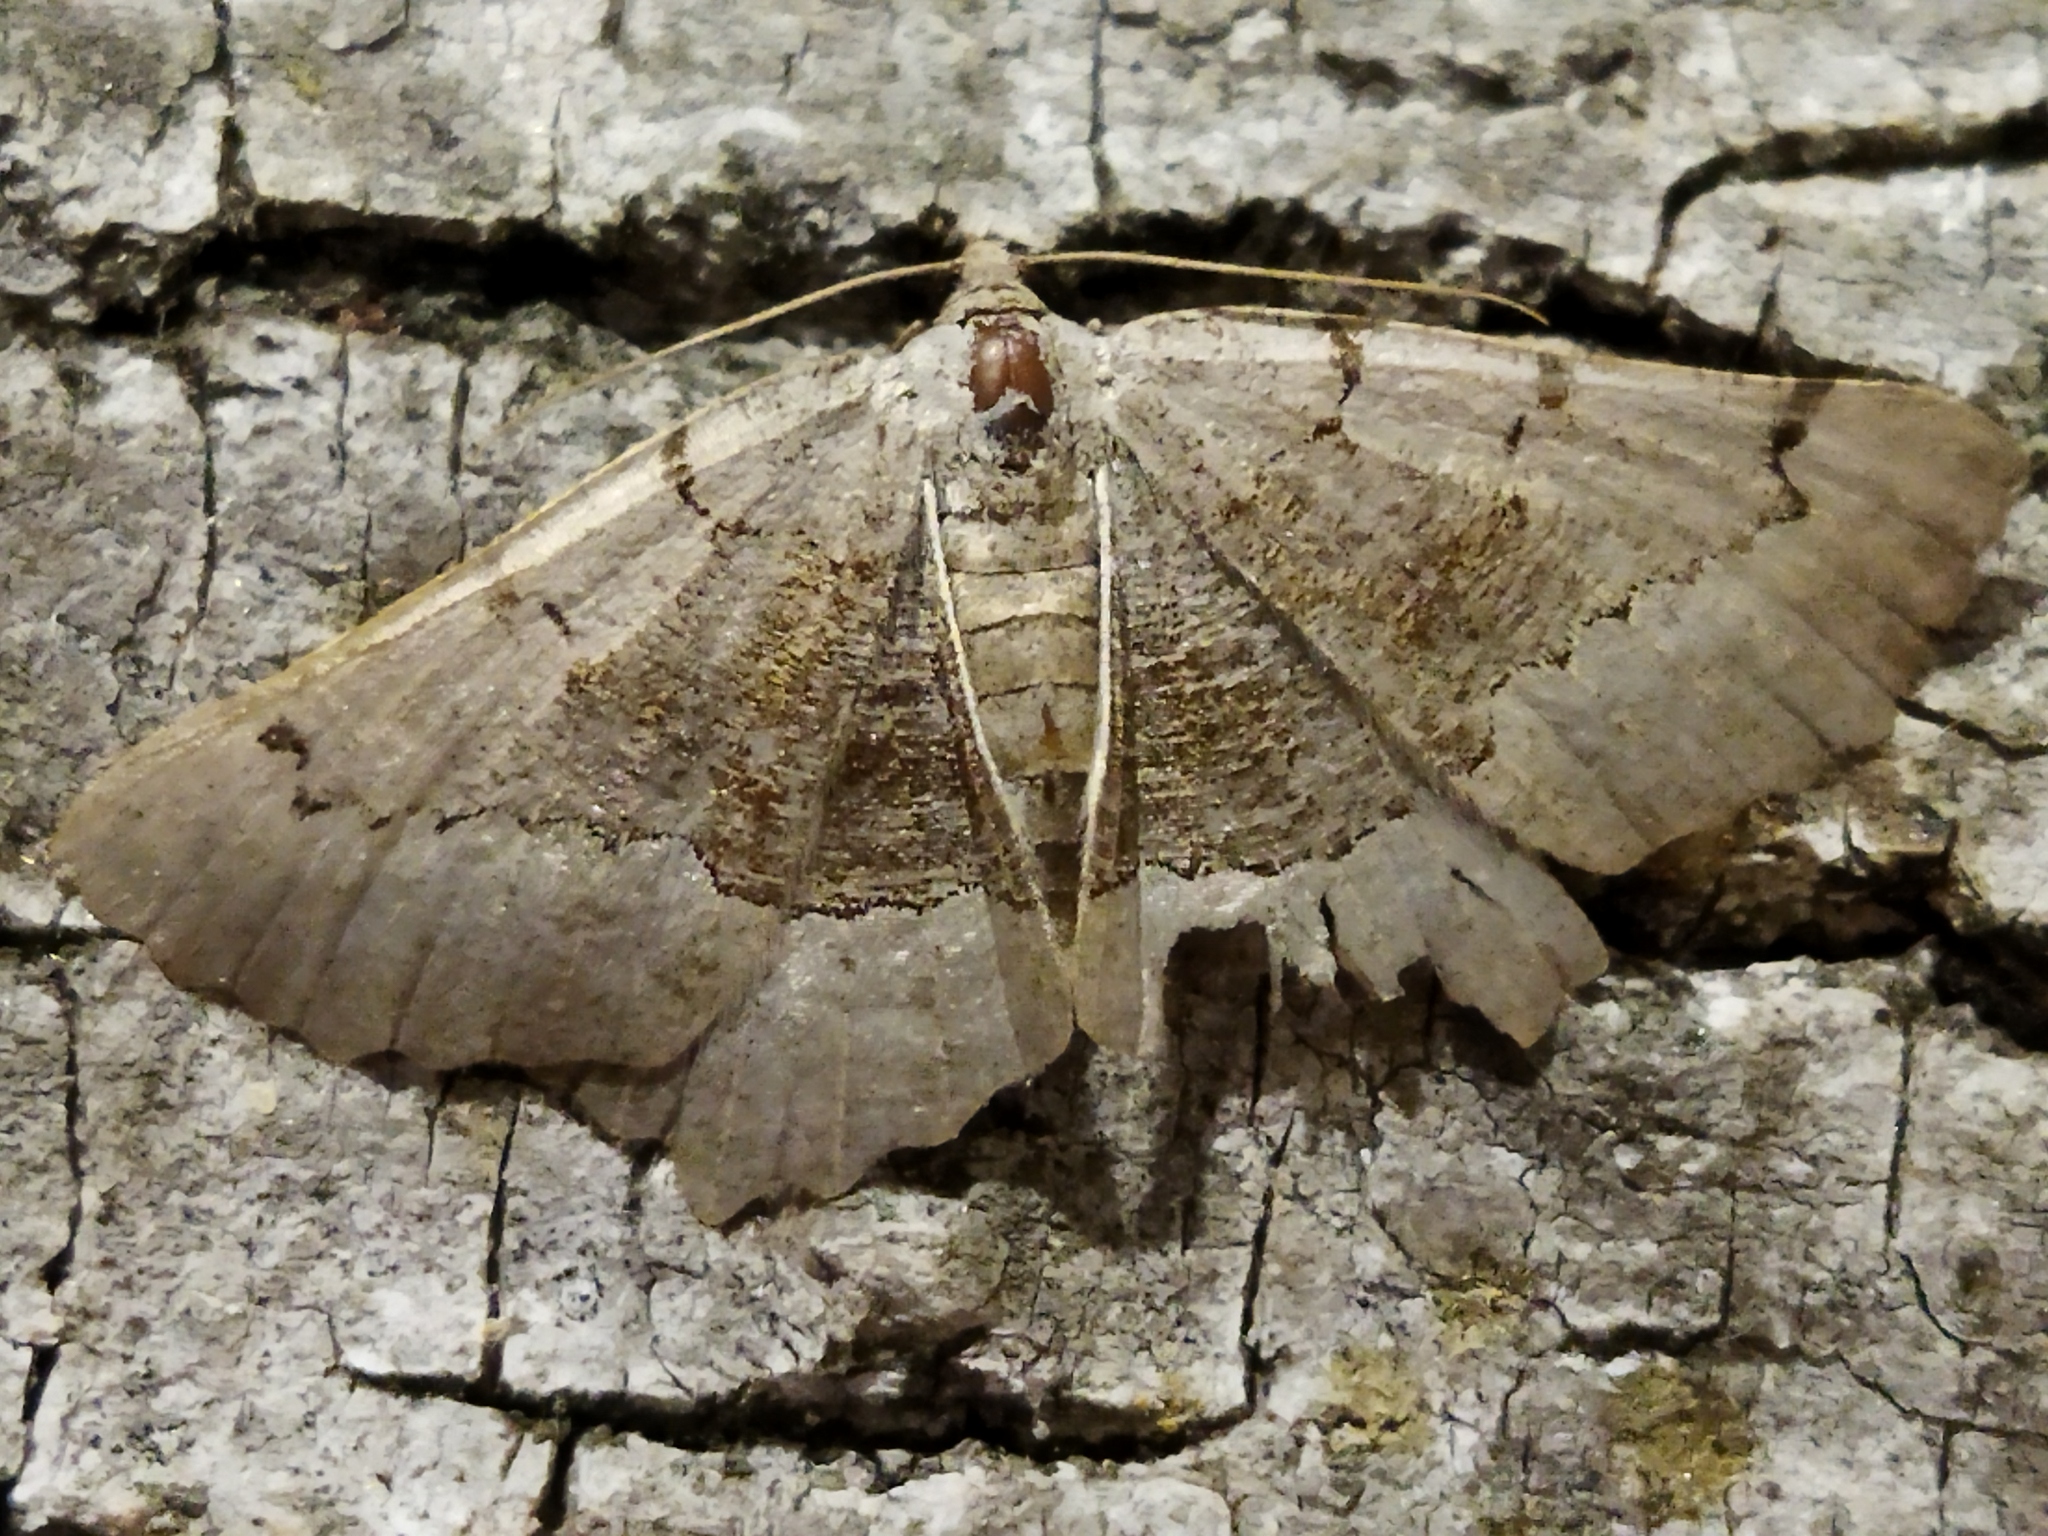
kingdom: Animalia
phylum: Arthropoda
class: Insecta
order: Lepidoptera
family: Geometridae
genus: Neognopharmia
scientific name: Neognopharmia stevenaria
